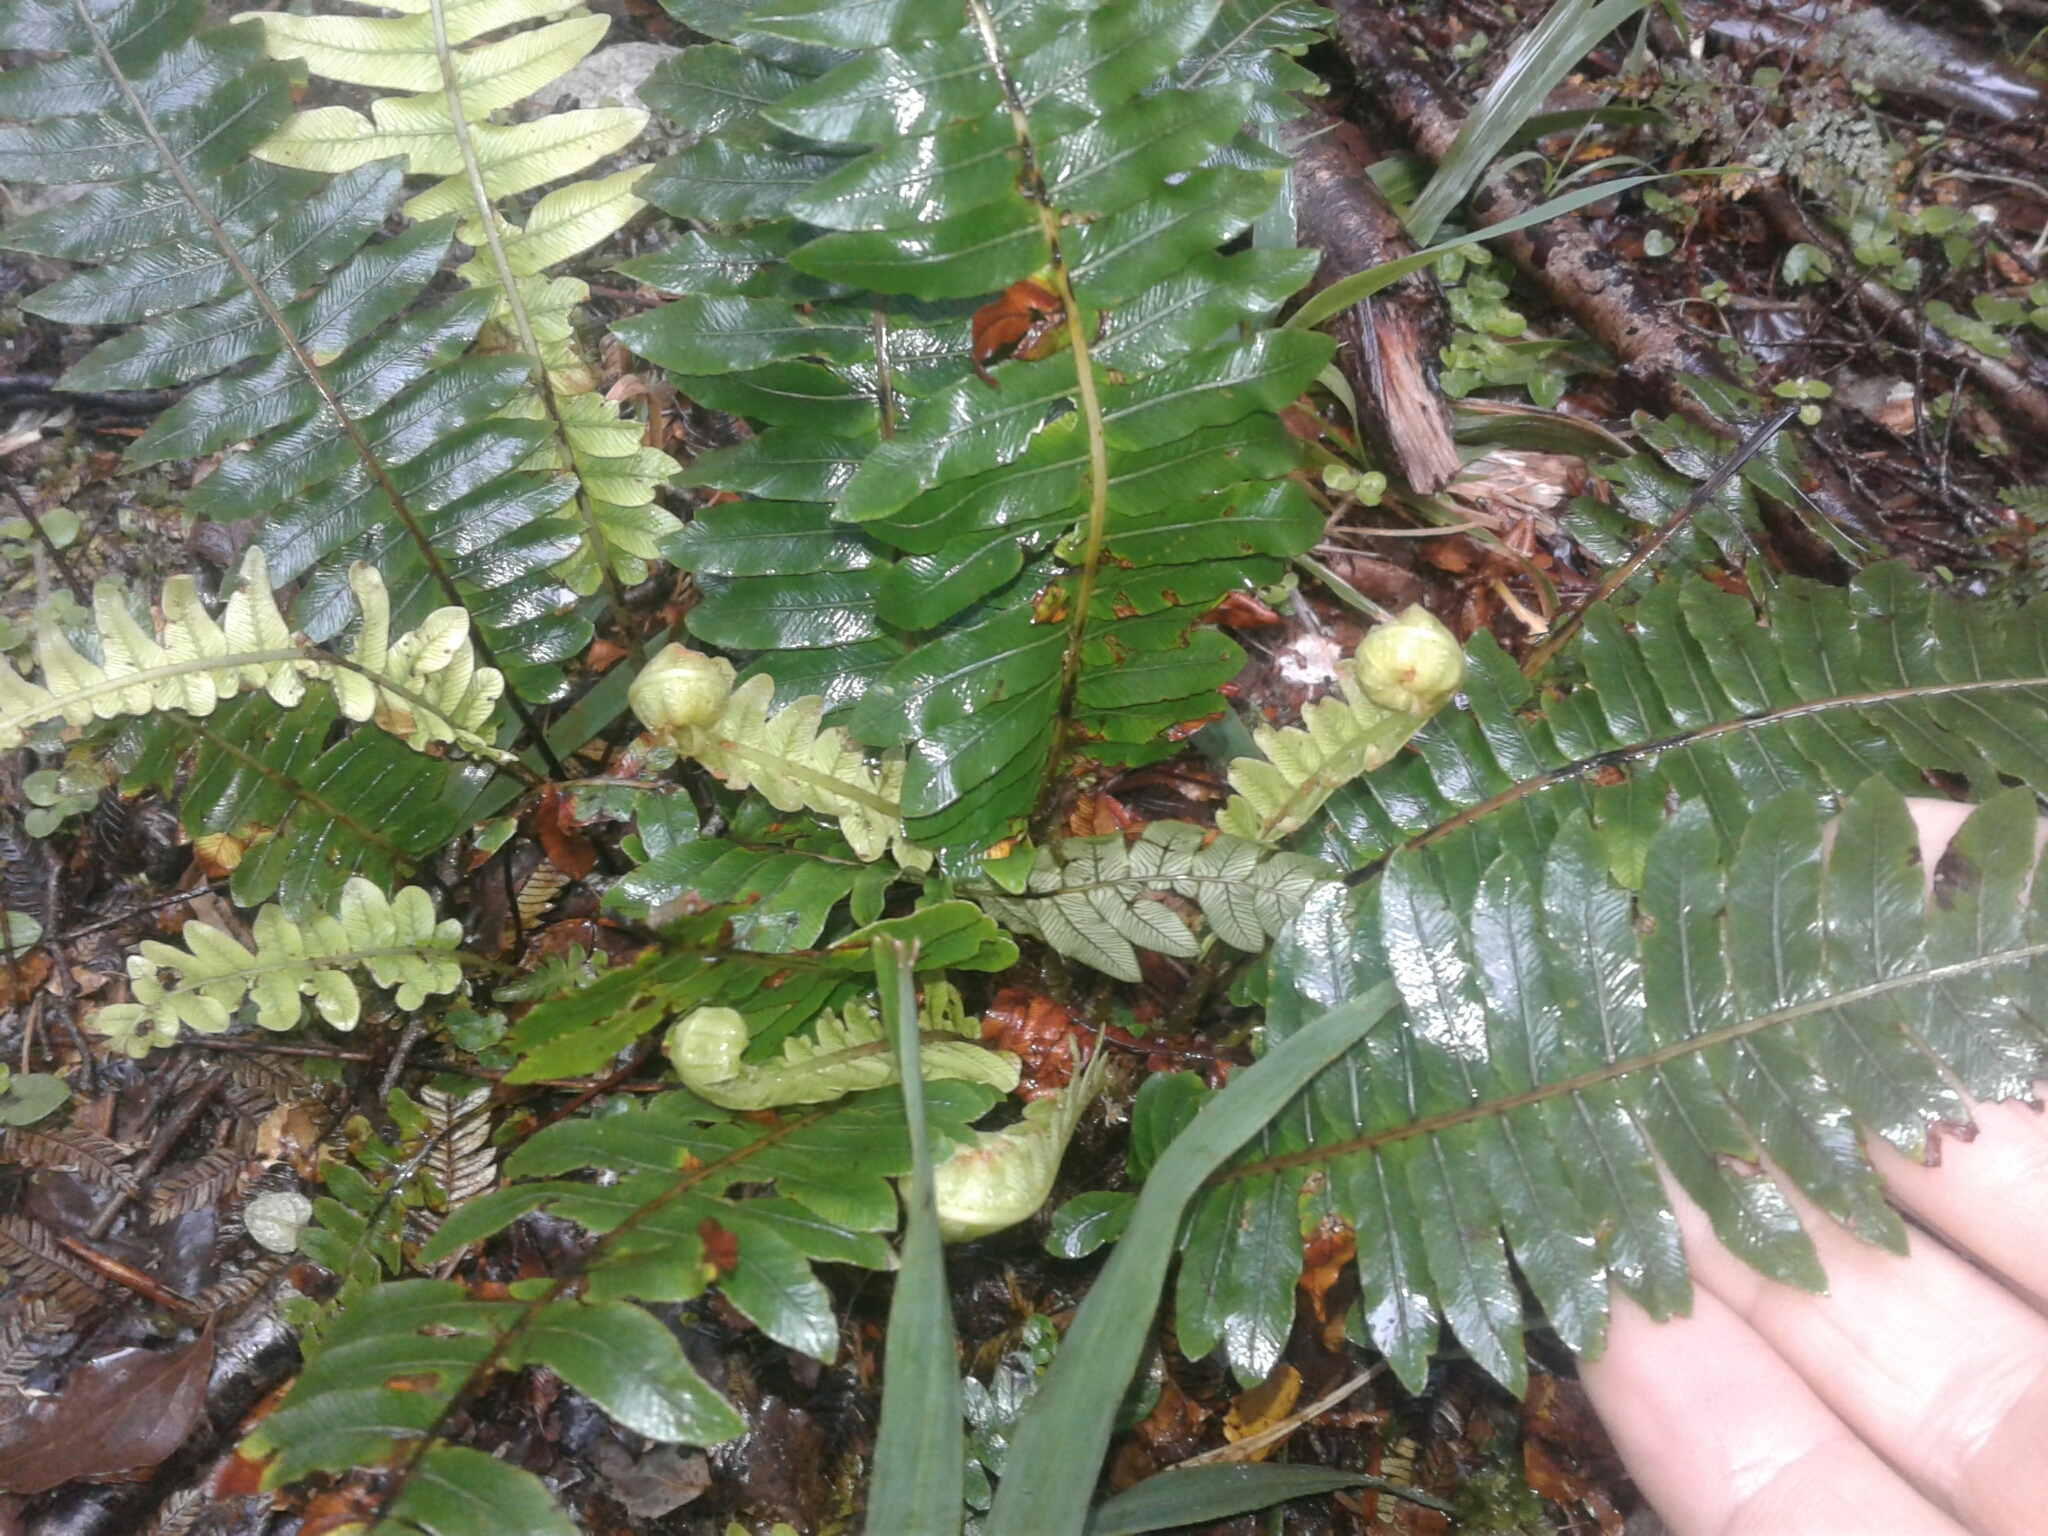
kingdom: Plantae
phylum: Tracheophyta
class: Polypodiopsida
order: Polypodiales
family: Blechnaceae
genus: Lomaria
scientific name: Lomaria discolor
